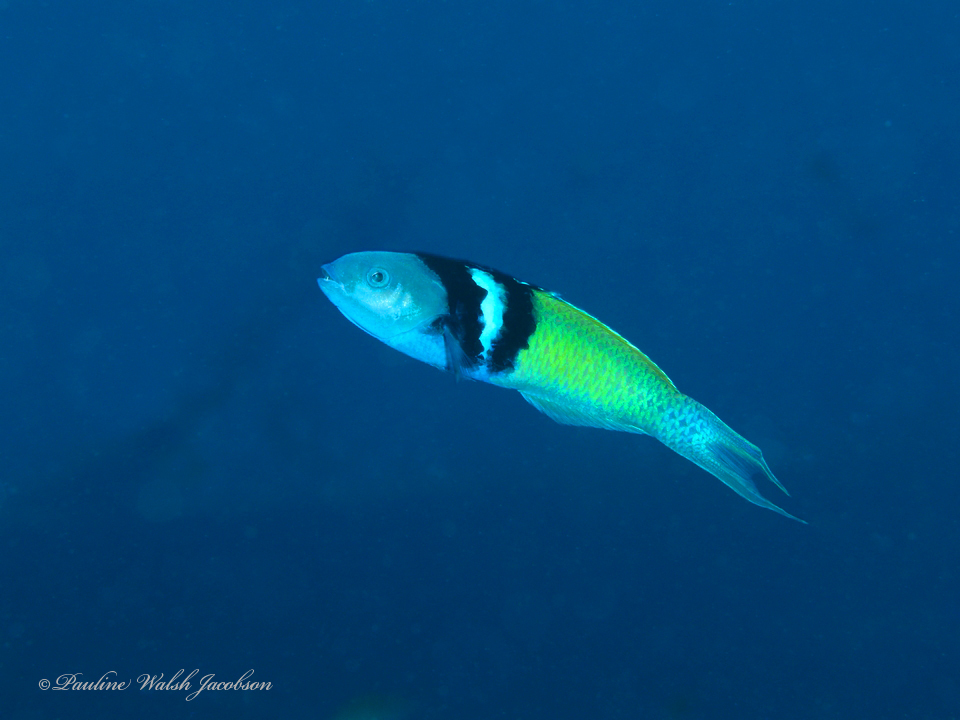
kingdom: Animalia
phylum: Chordata
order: Perciformes
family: Labridae
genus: Thalassoma
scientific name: Thalassoma bifasciatum
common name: Bluehead wrasse
